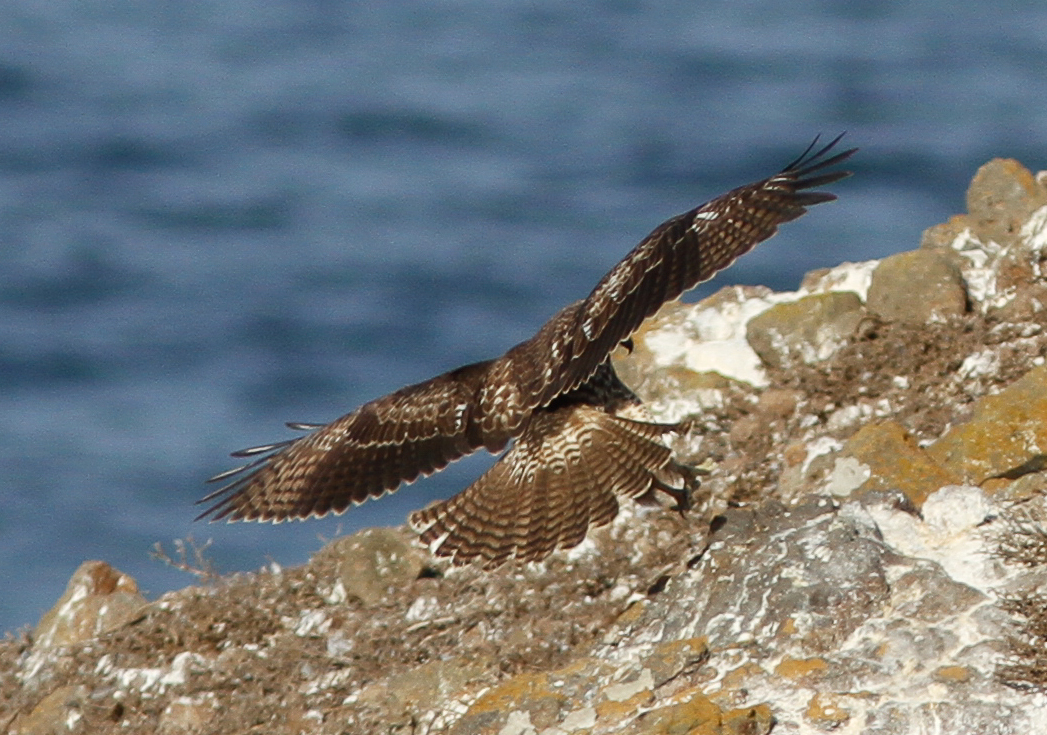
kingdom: Animalia
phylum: Chordata
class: Aves
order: Accipitriformes
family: Accipitridae
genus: Buteo
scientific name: Buteo jamaicensis
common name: Red-tailed hawk
